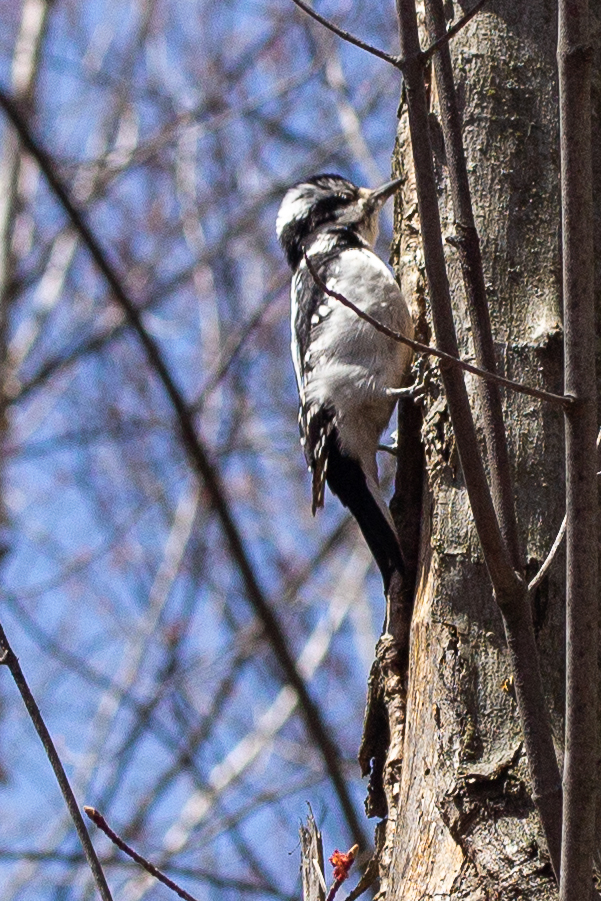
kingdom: Animalia
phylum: Chordata
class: Aves
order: Piciformes
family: Picidae
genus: Dryobates
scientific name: Dryobates pubescens
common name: Downy woodpecker
